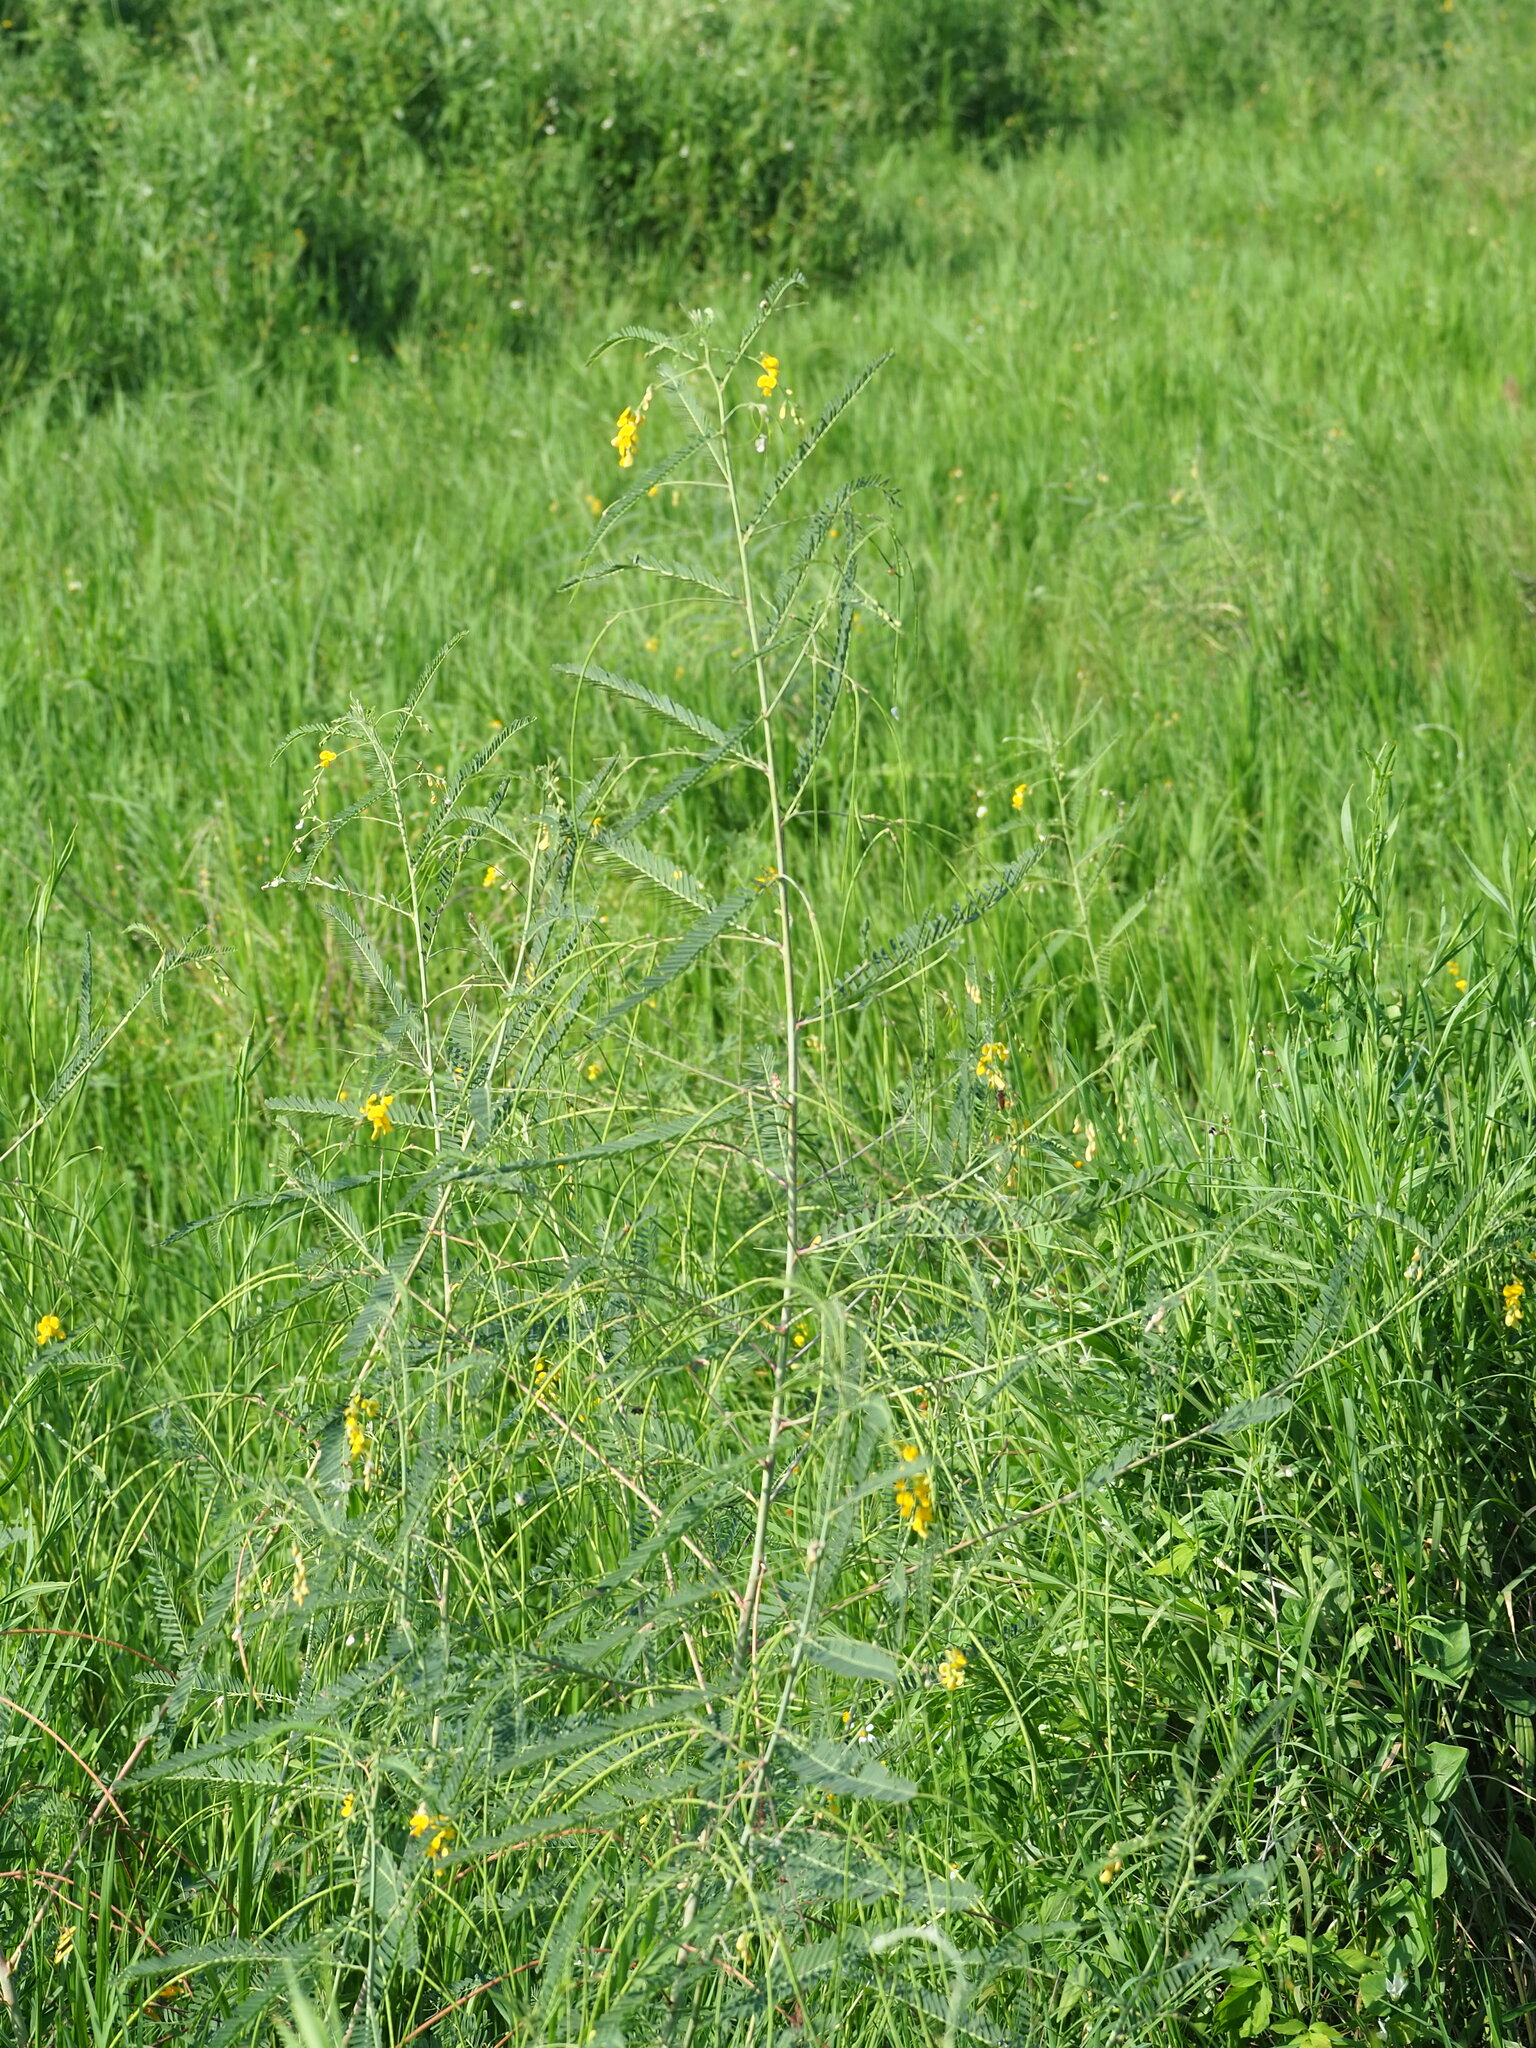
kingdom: Plantae
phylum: Tracheophyta
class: Magnoliopsida
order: Fabales
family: Fabaceae
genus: Sesbania
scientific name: Sesbania cannabina
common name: Canicha
